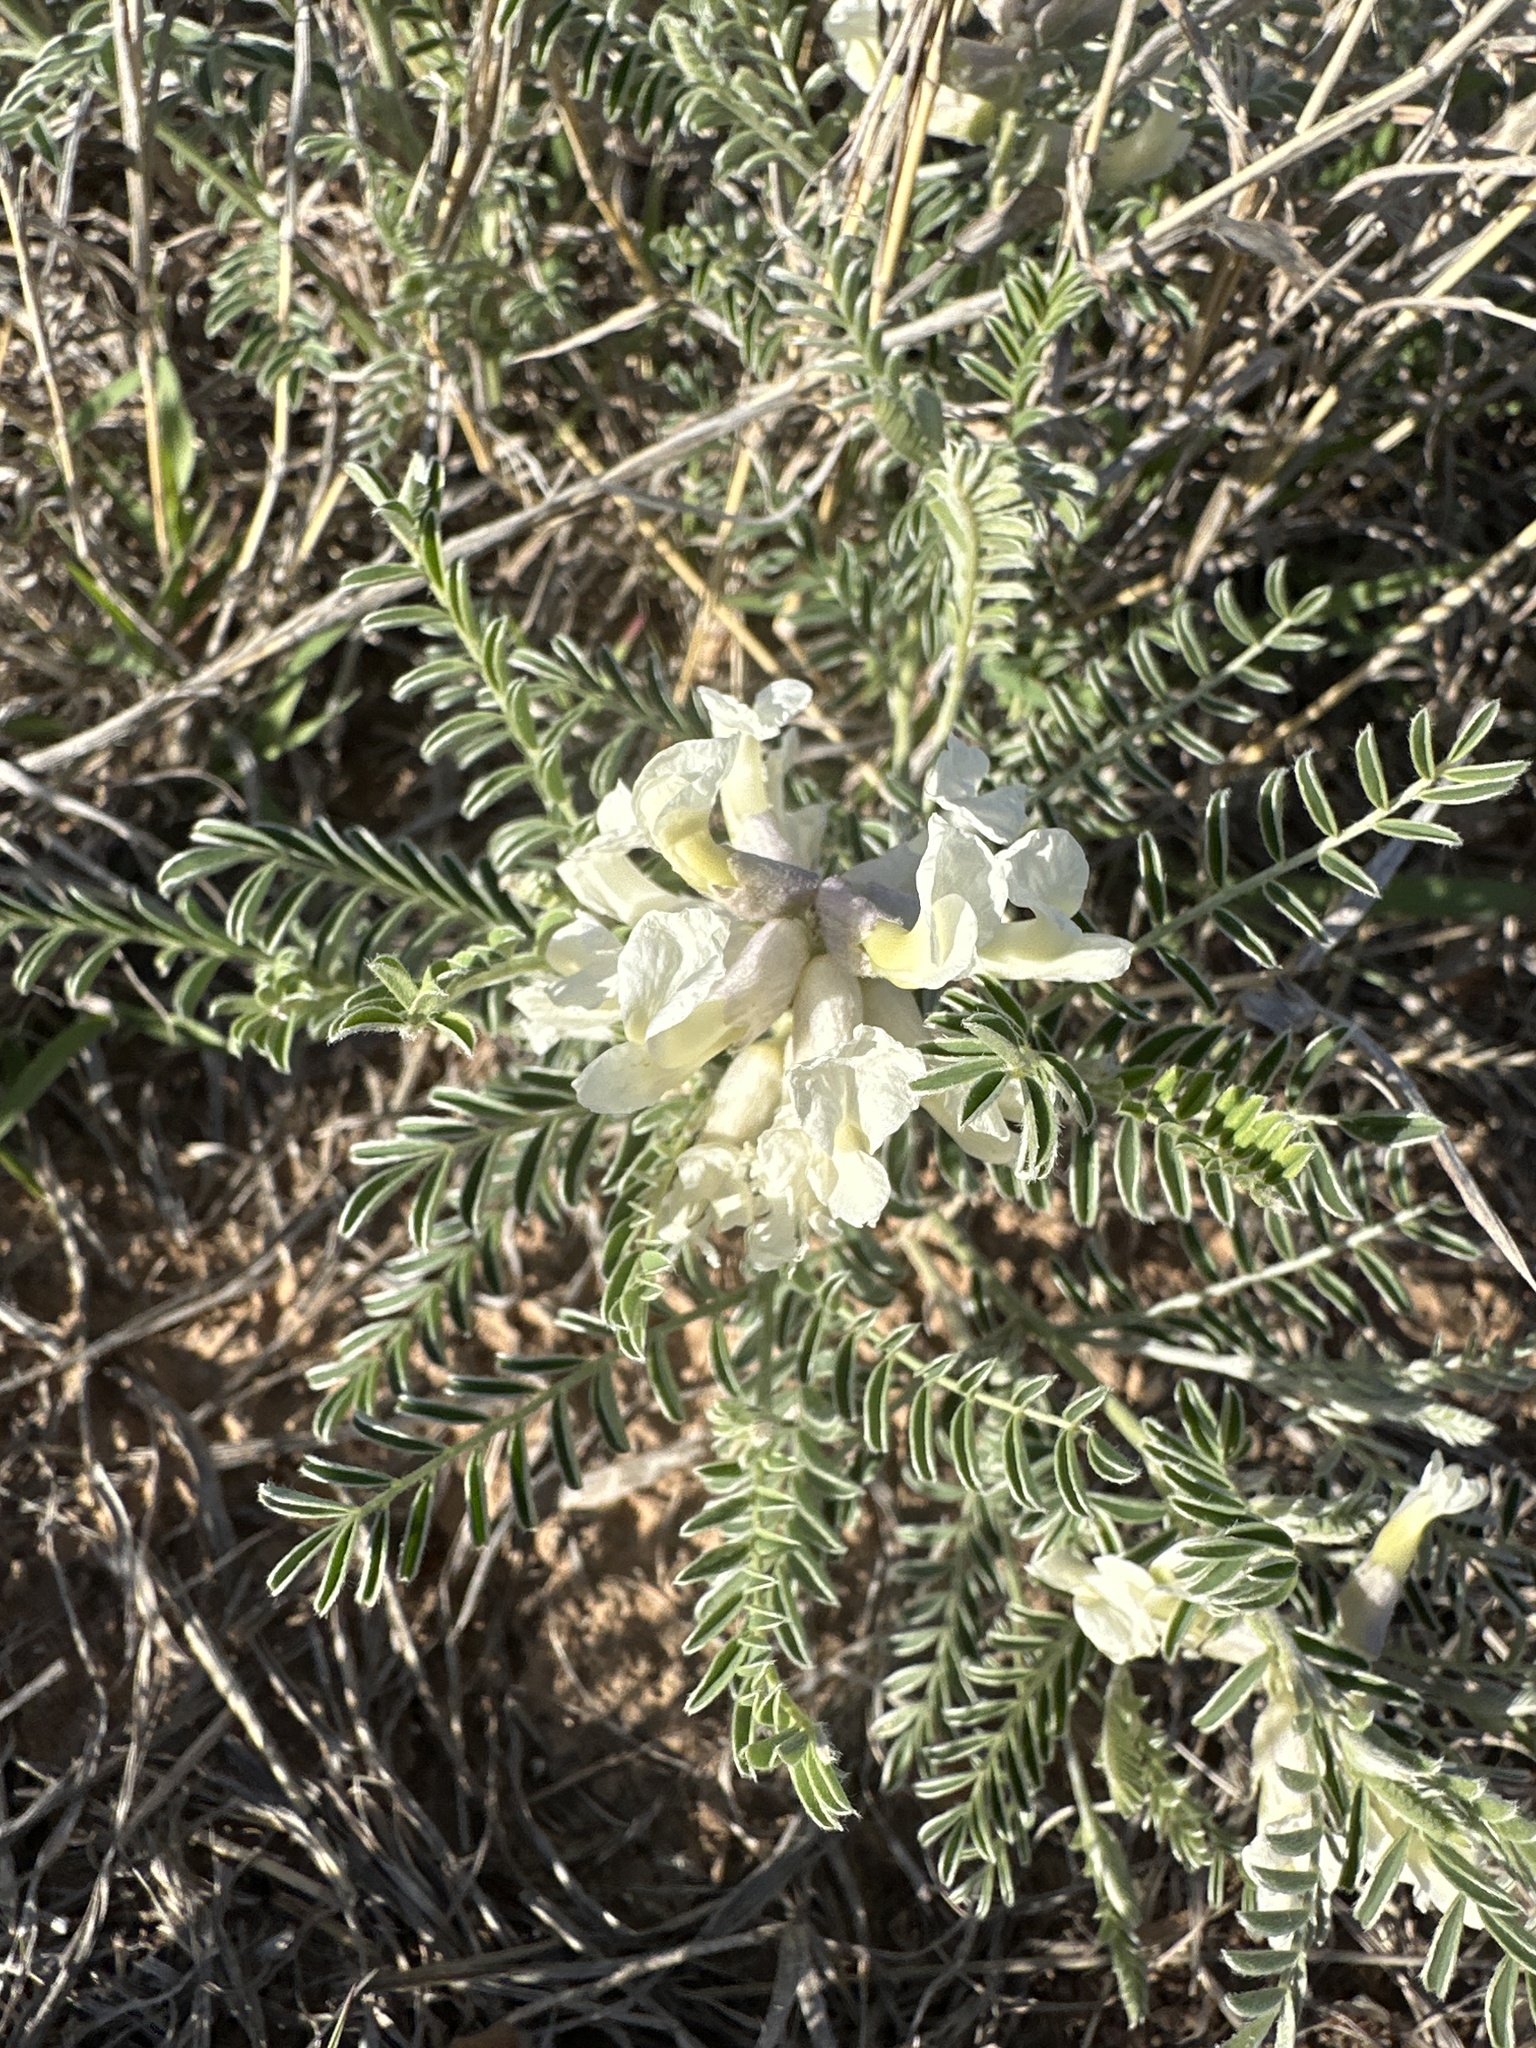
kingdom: Plantae
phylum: Tracheophyta
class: Magnoliopsida
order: Fabales
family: Fabaceae
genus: Sophora
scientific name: Sophora nuttalliana
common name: Silky sophora
